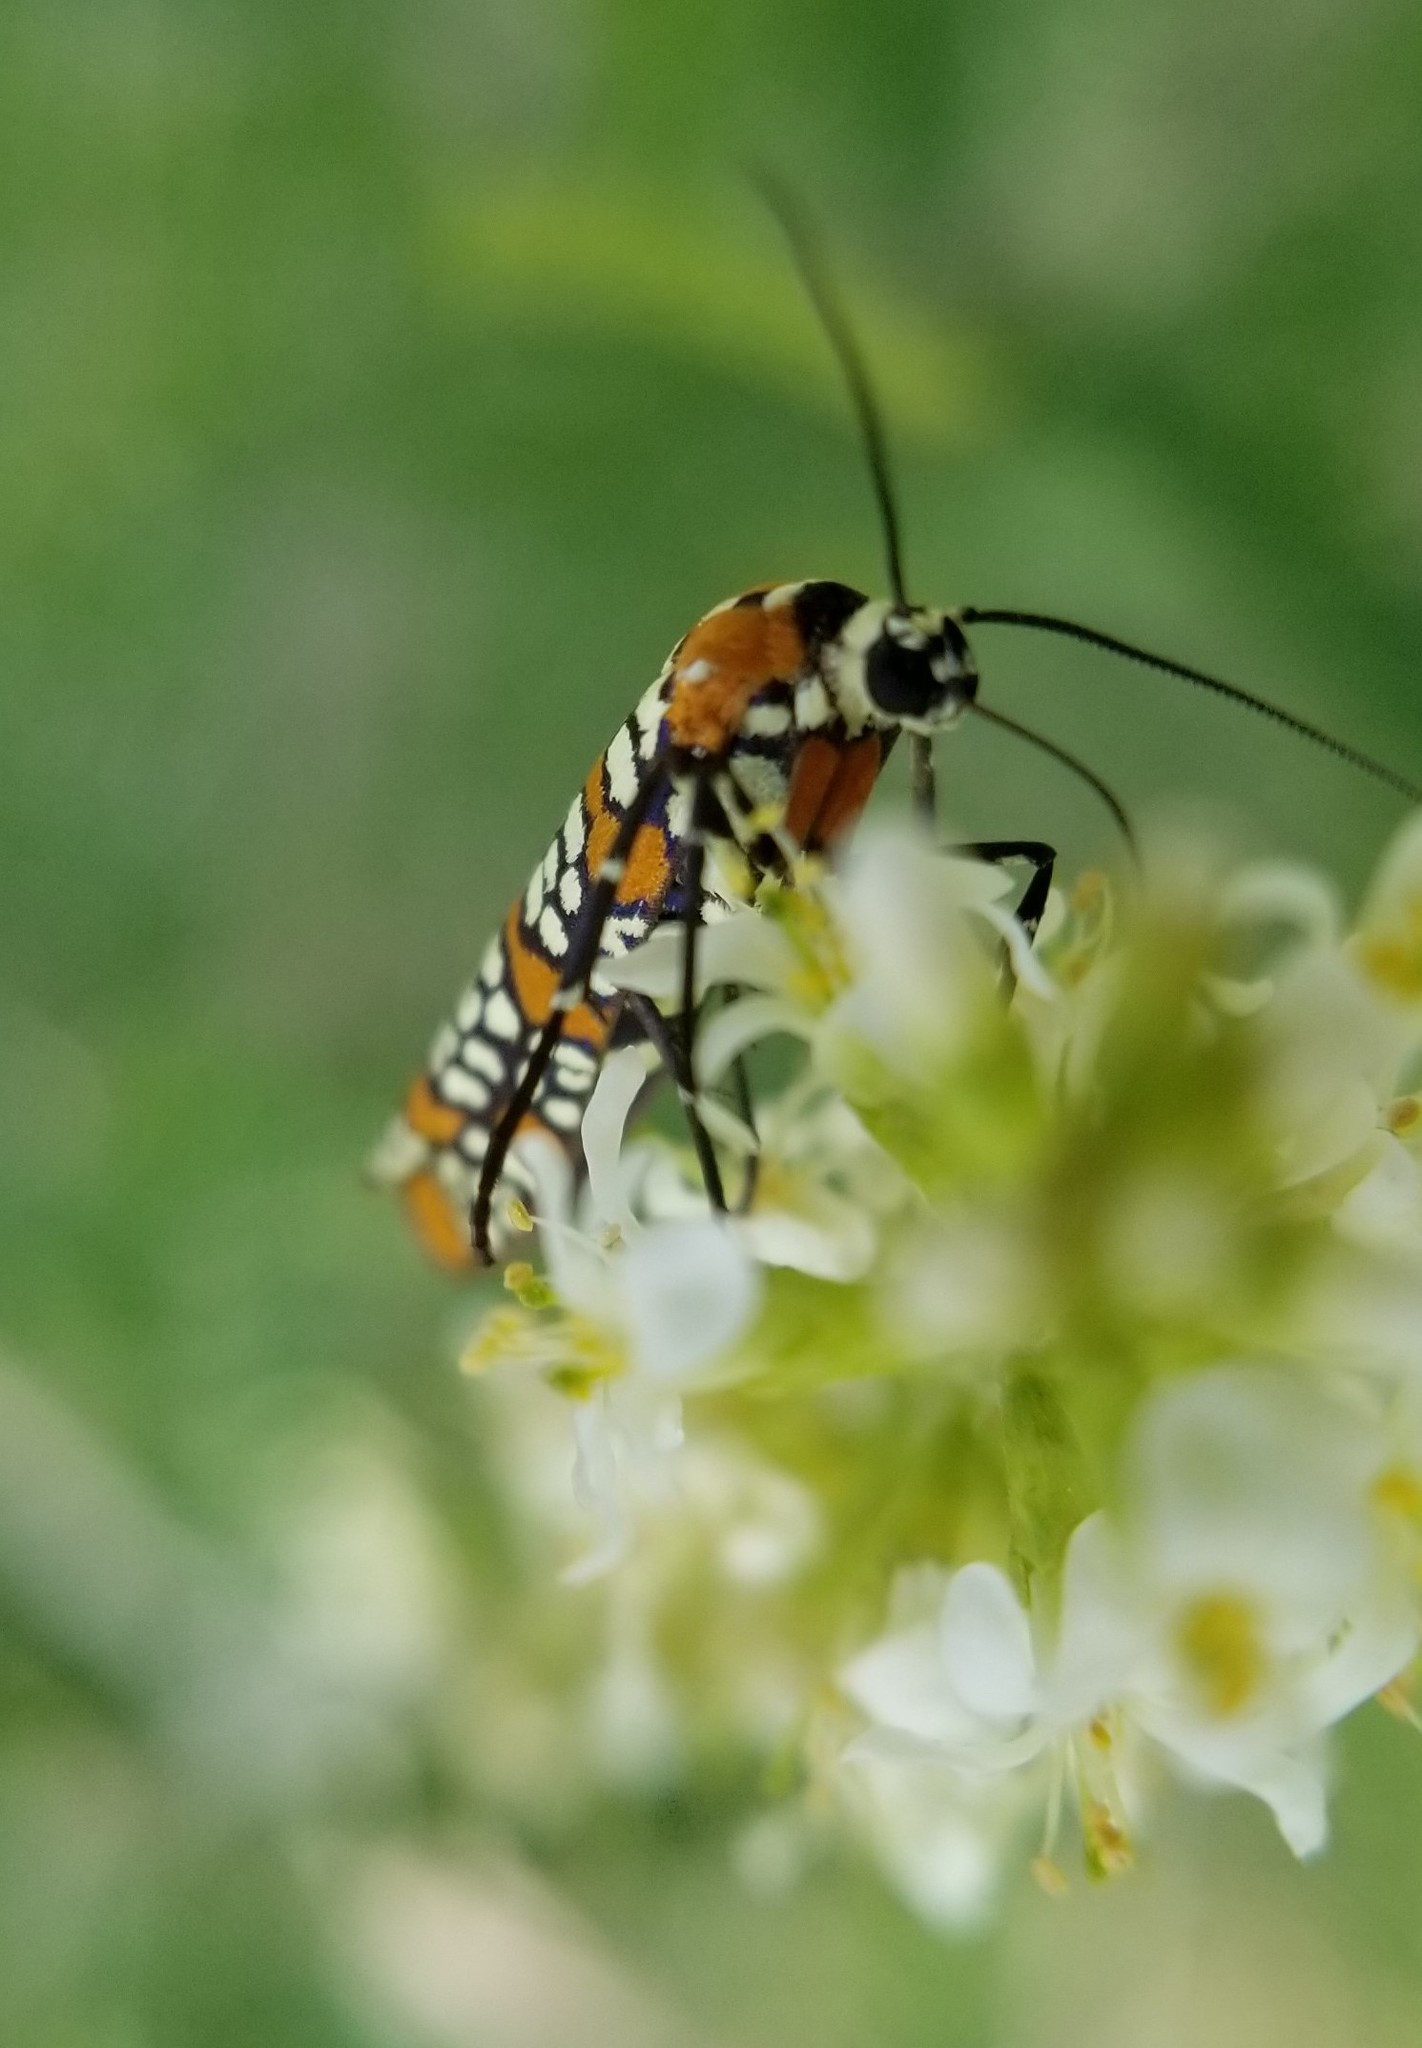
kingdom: Animalia
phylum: Arthropoda
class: Insecta
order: Lepidoptera
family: Attevidae
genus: Atteva
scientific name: Atteva punctella
